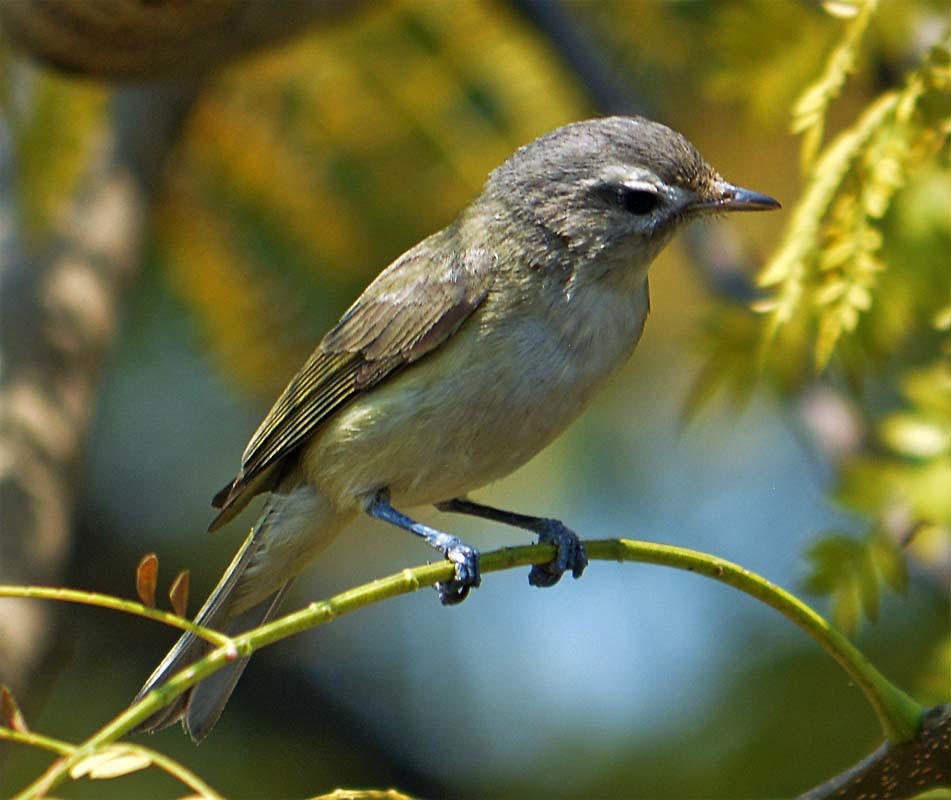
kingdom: Animalia
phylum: Chordata
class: Aves
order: Passeriformes
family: Vireonidae
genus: Vireo
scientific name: Vireo gilvus
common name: Warbling vireo
